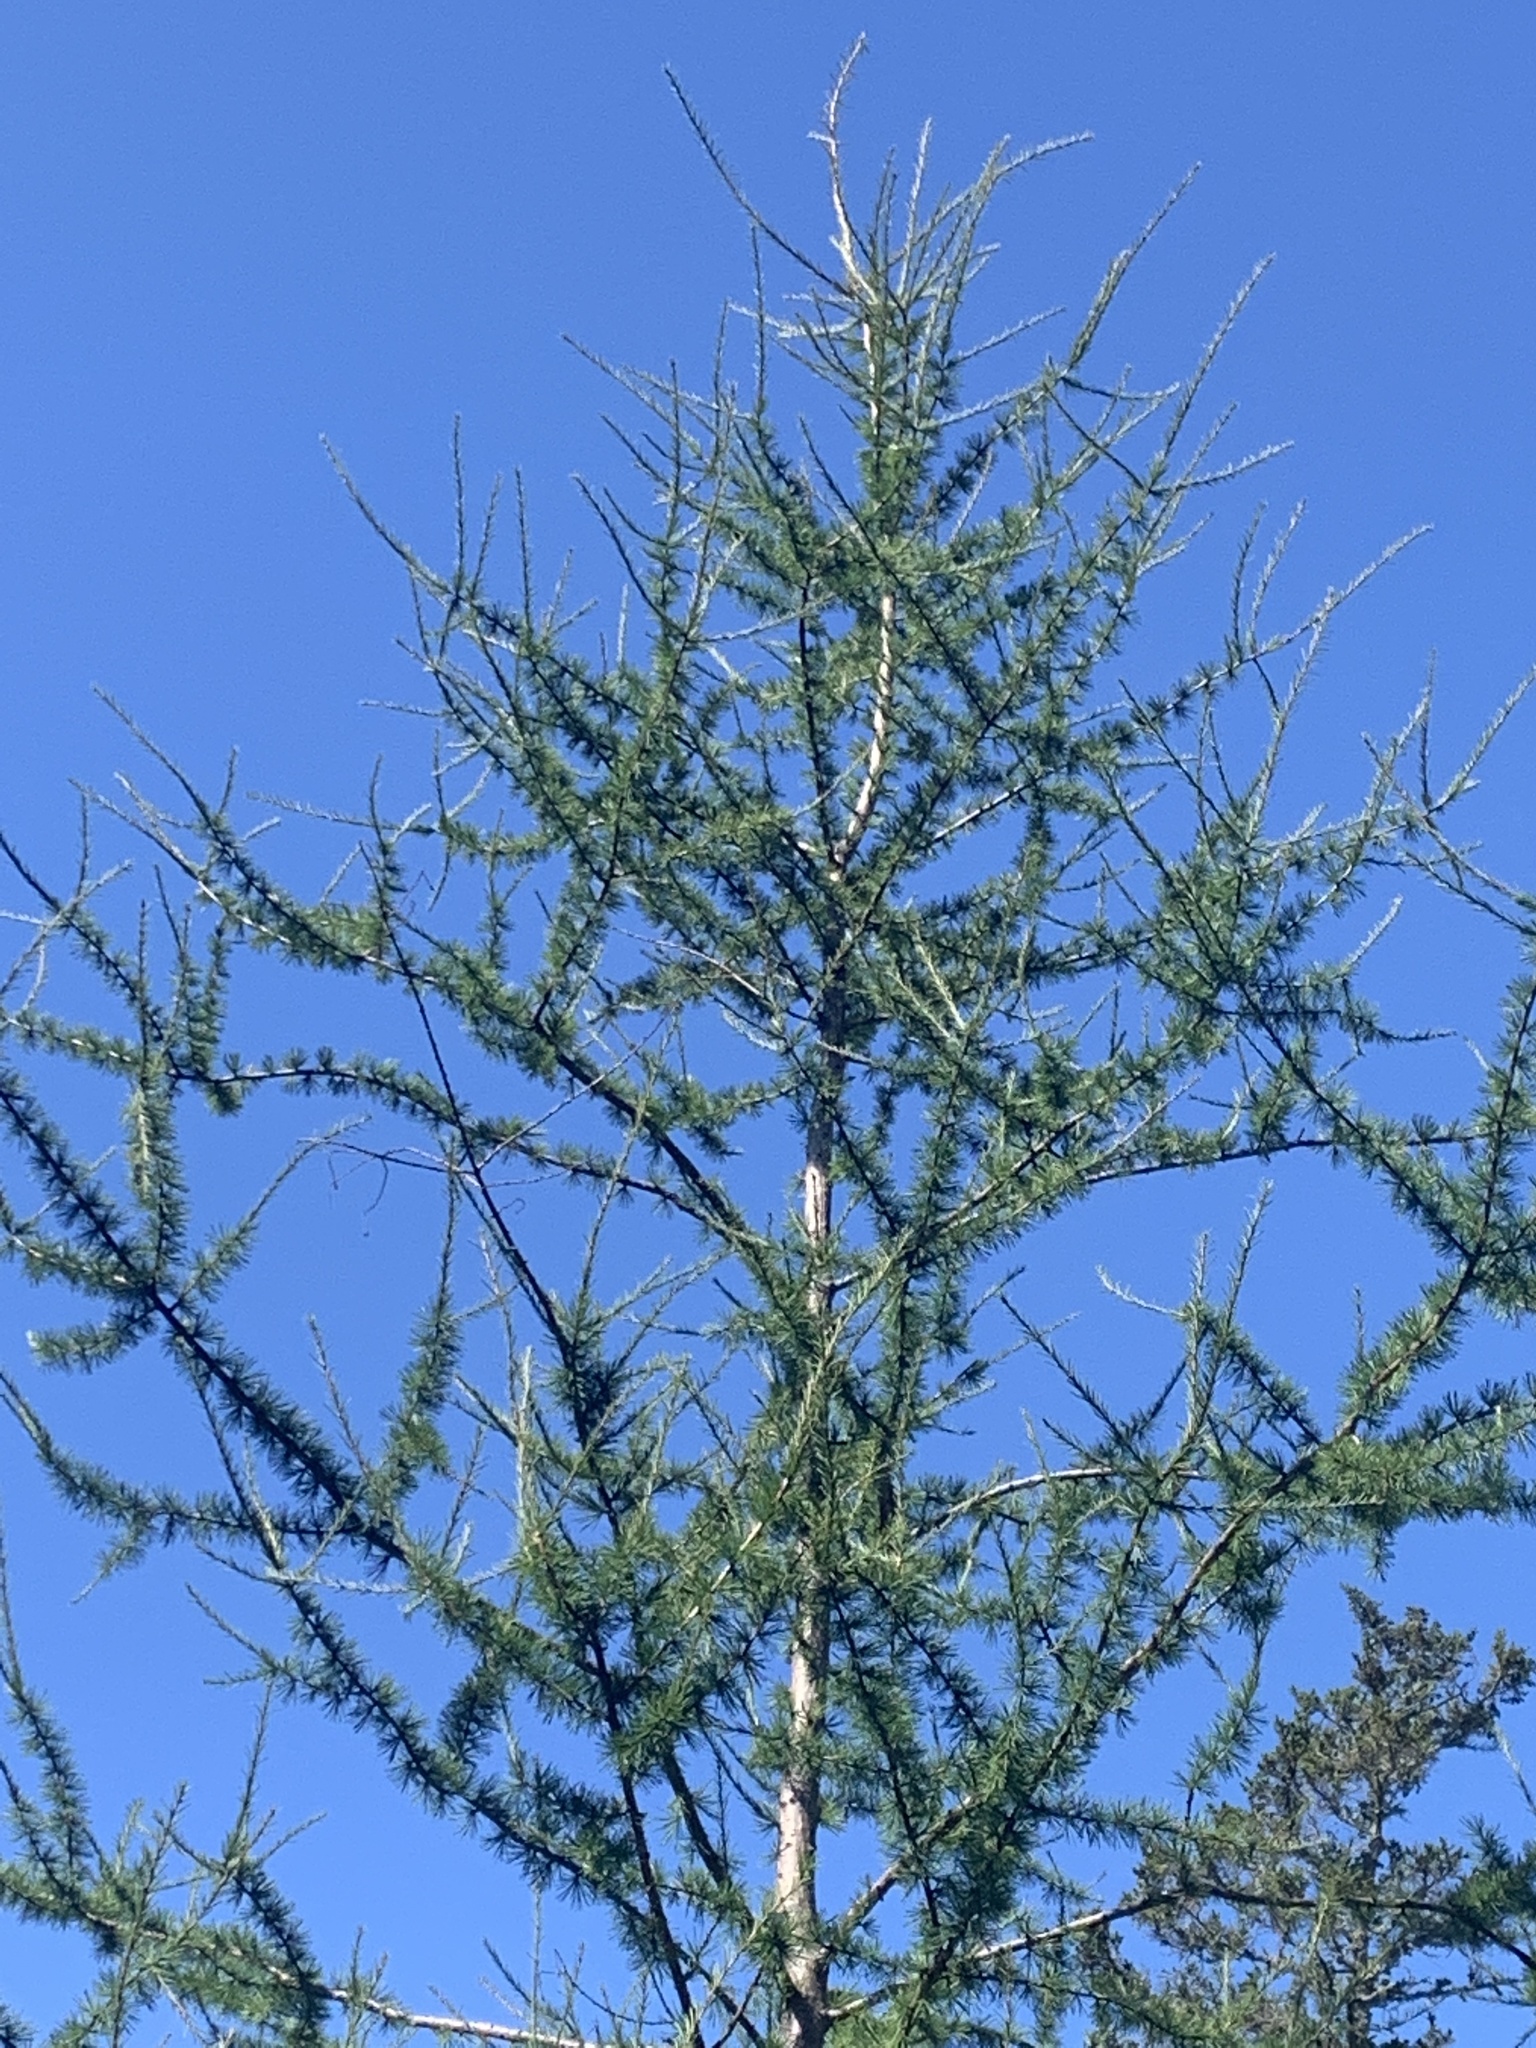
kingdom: Plantae
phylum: Tracheophyta
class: Pinopsida
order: Pinales
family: Pinaceae
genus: Larix
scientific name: Larix laricina
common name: American larch
